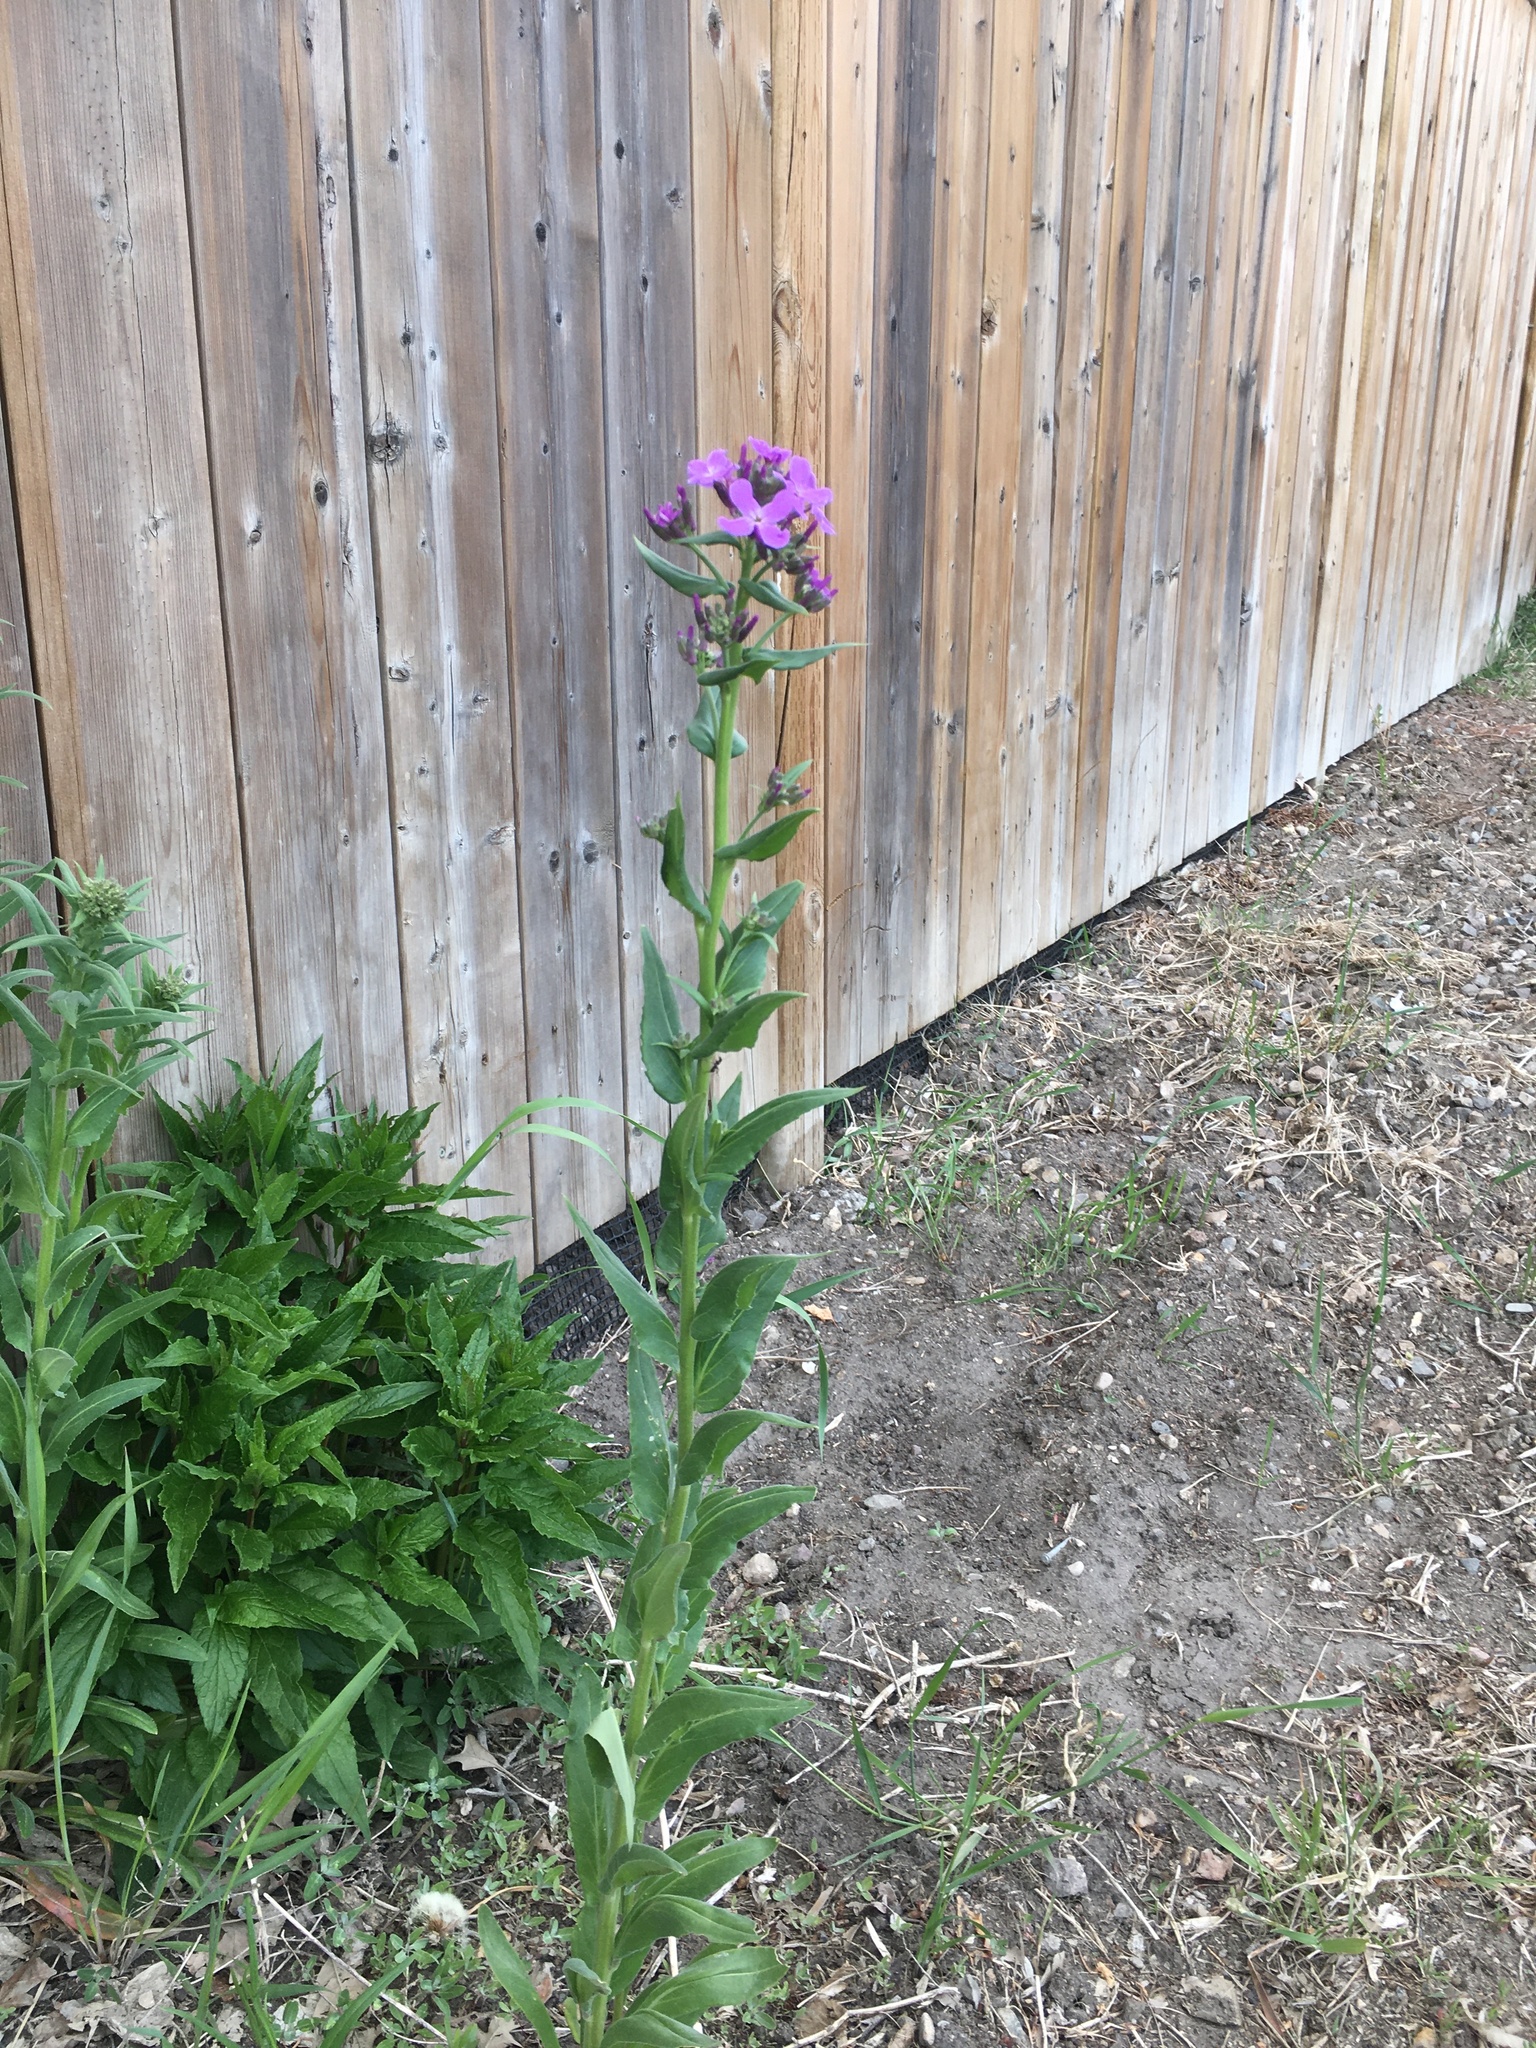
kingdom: Plantae
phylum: Tracheophyta
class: Magnoliopsida
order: Brassicales
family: Brassicaceae
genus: Hesperis
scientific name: Hesperis matronalis
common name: Dame's-violet
